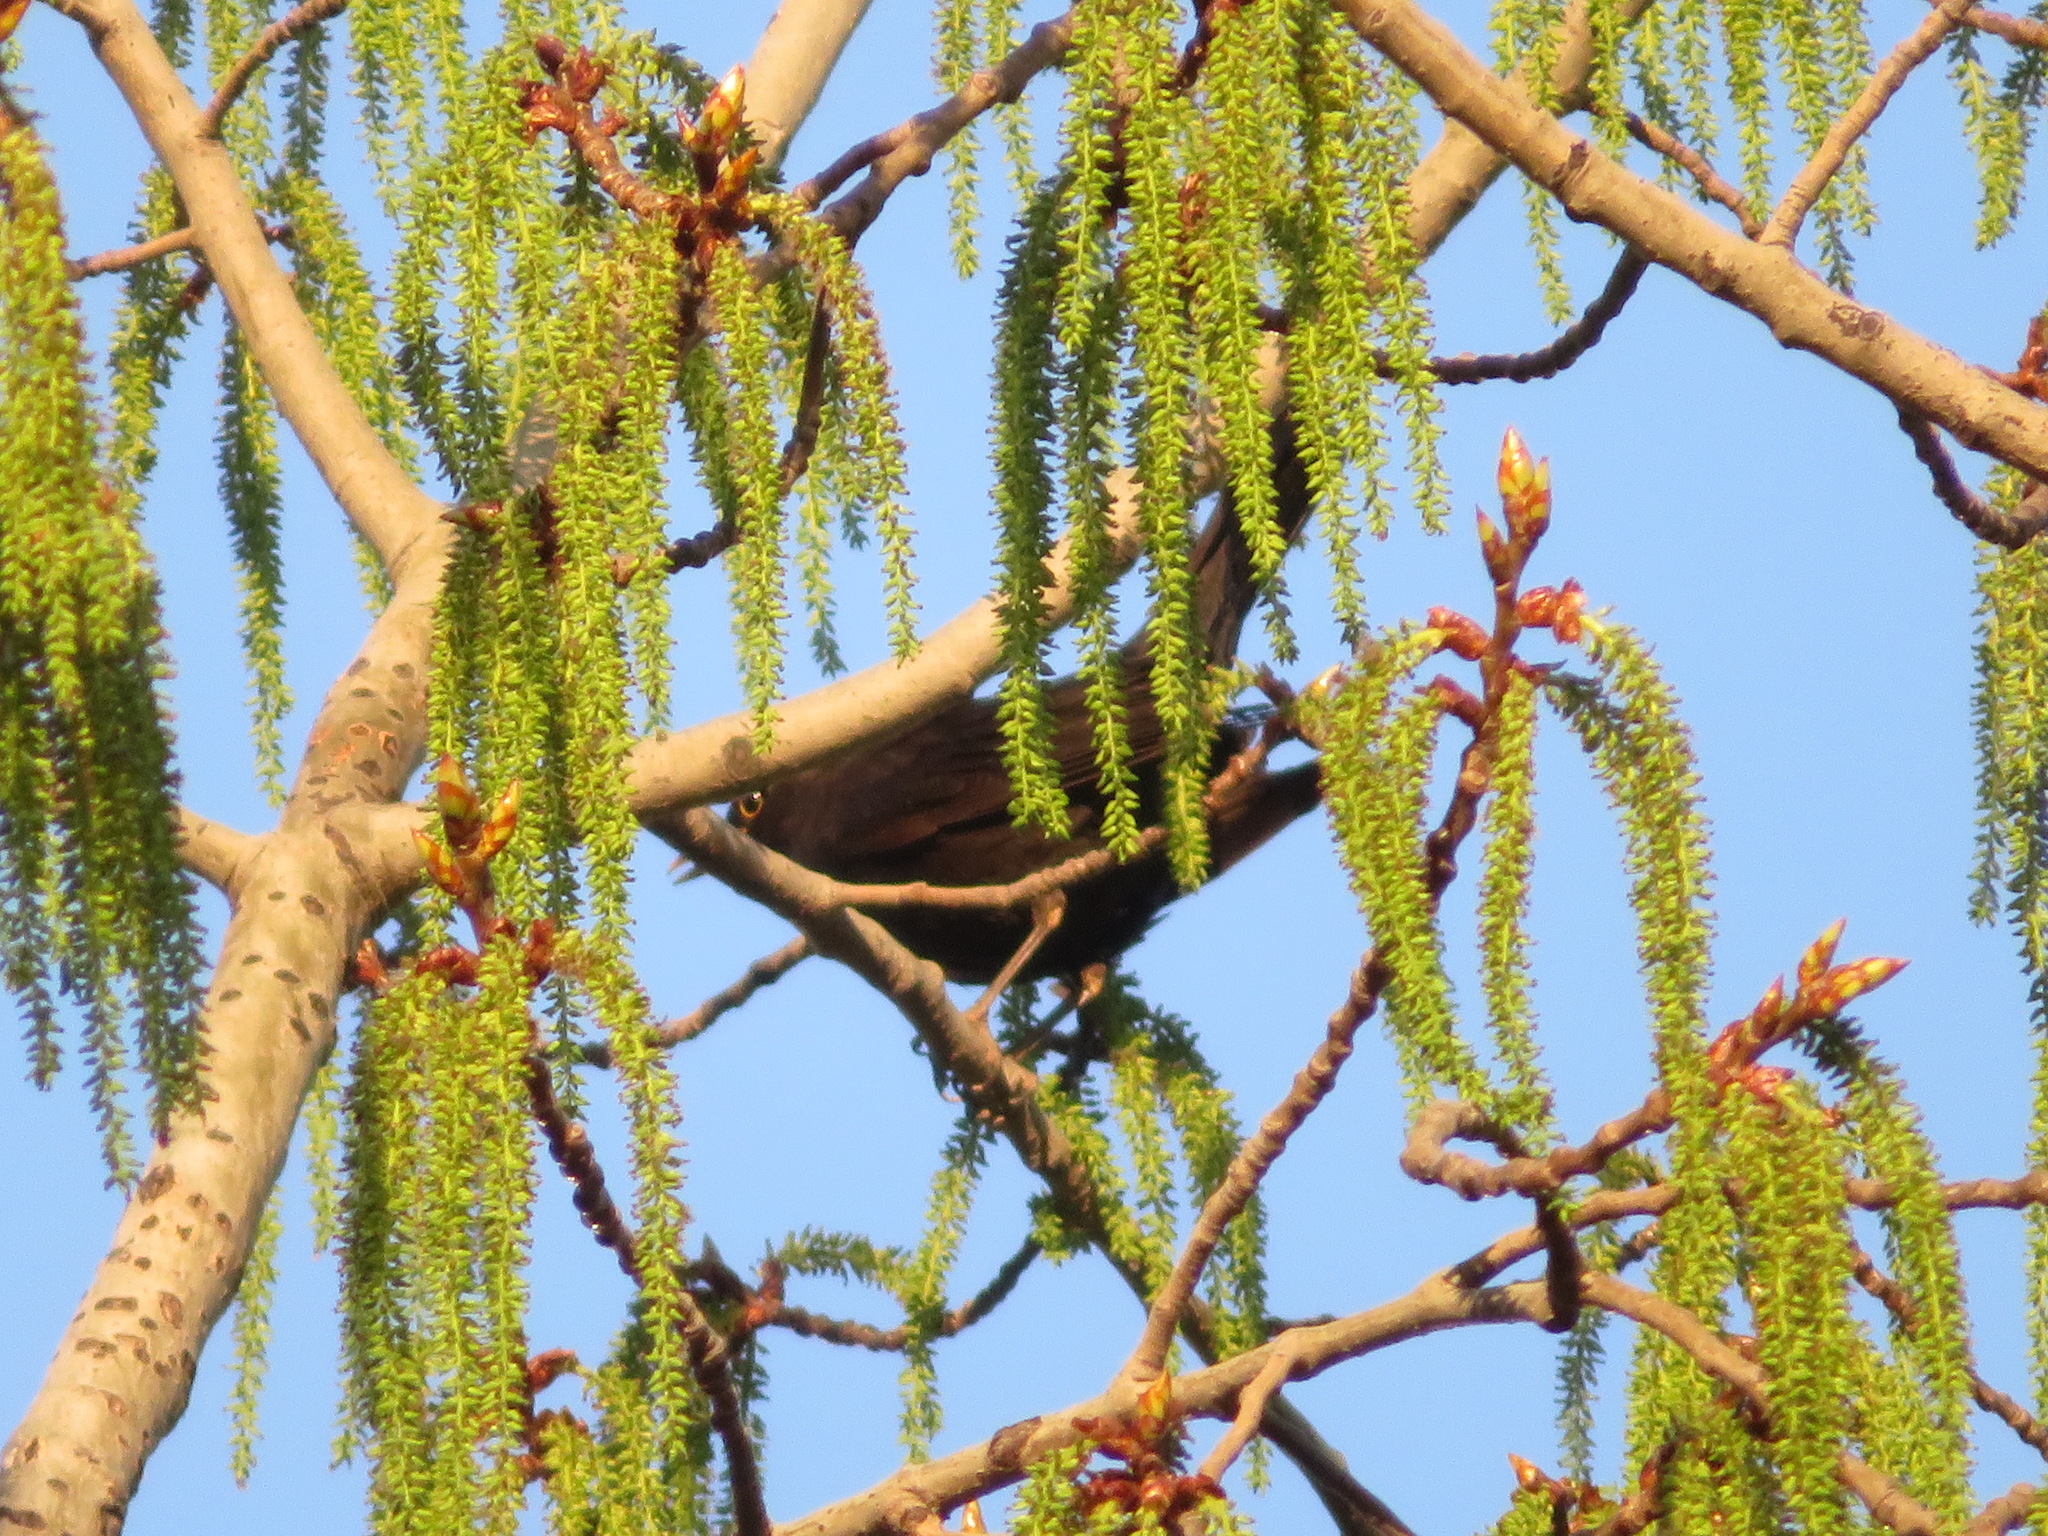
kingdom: Animalia
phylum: Chordata
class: Aves
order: Passeriformes
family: Turdidae
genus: Turdus
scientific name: Turdus mandarinus
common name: Chinese blackbird
